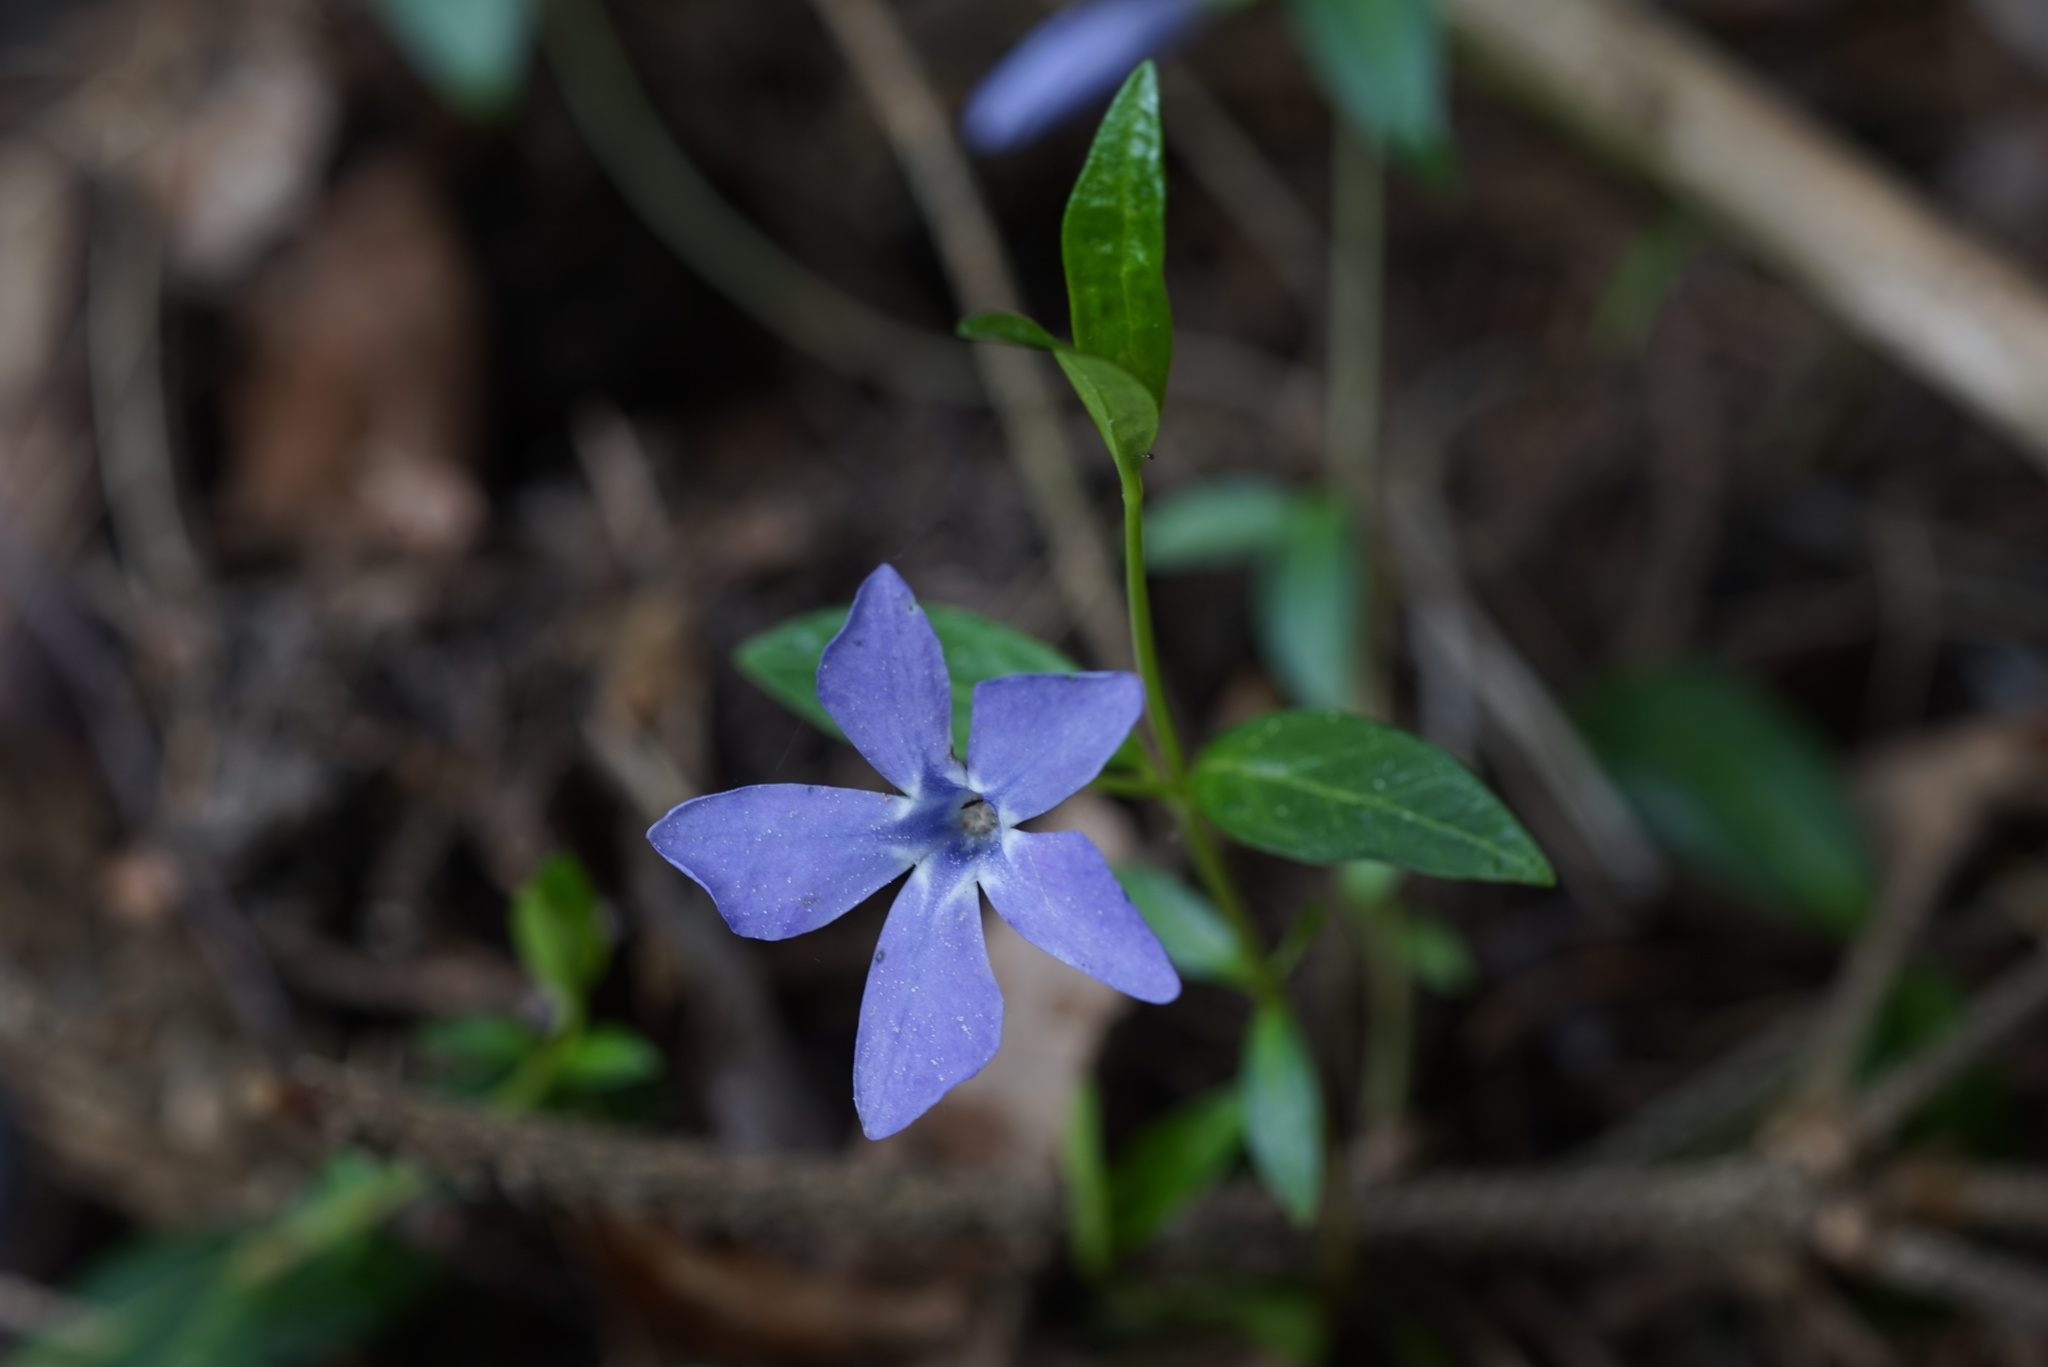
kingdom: Plantae
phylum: Tracheophyta
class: Magnoliopsida
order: Gentianales
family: Apocynaceae
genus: Vinca
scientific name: Vinca minor
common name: Lesser periwinkle
